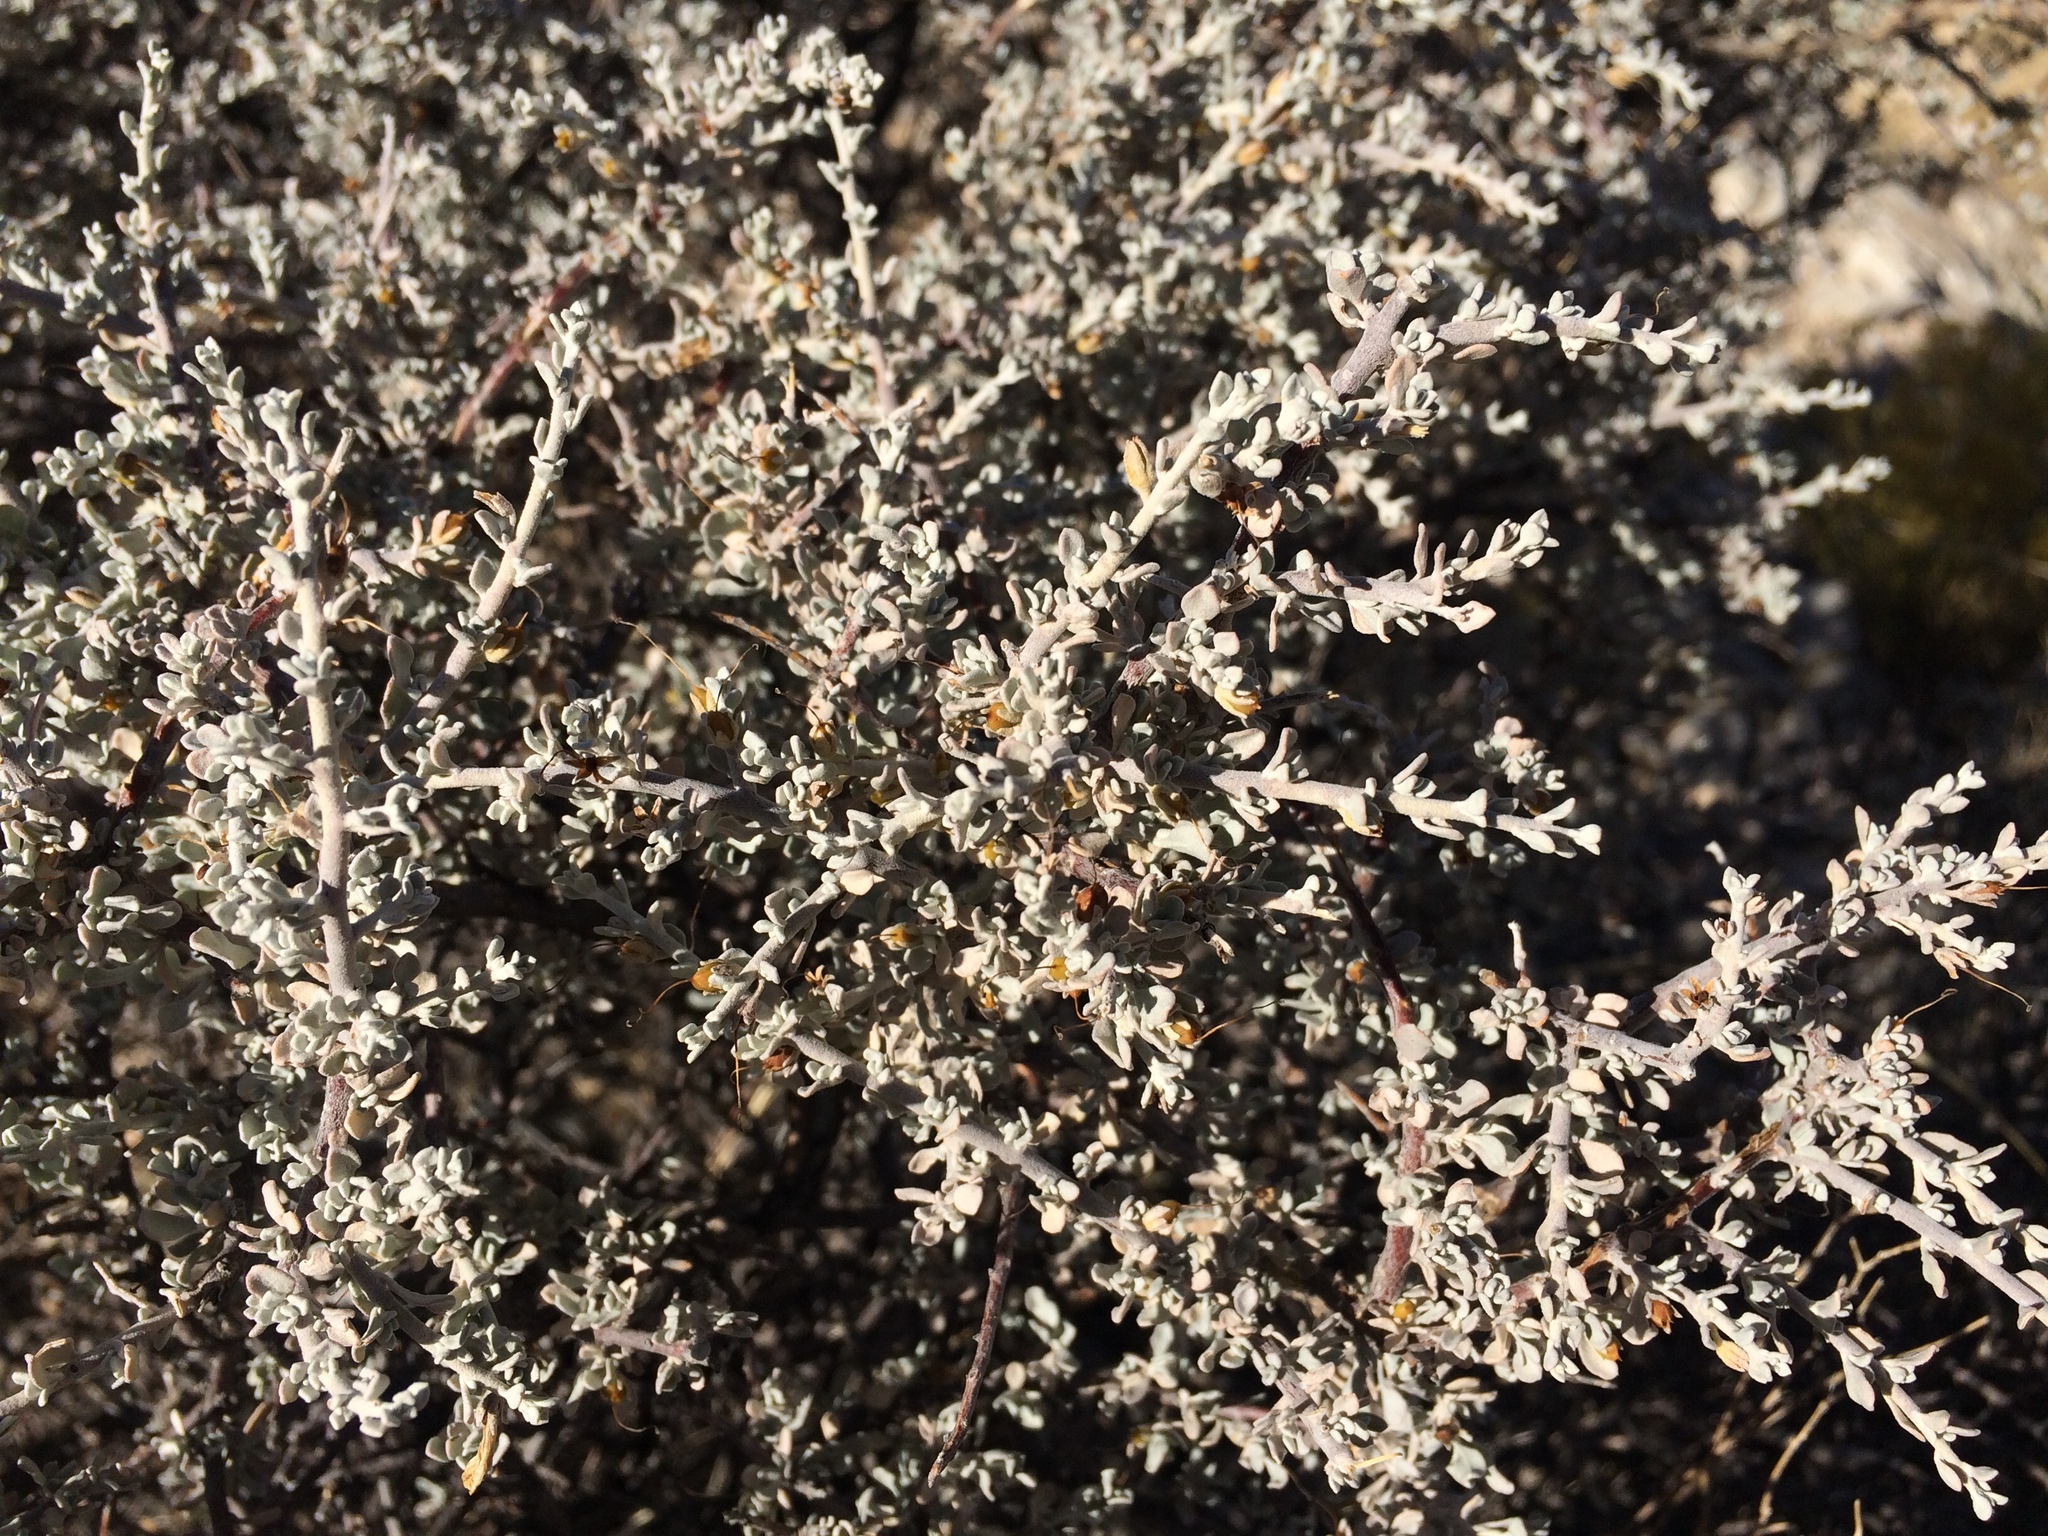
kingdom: Plantae
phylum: Tracheophyta
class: Magnoliopsida
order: Lamiales
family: Scrophulariaceae
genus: Leucophyllum
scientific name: Leucophyllum minus
